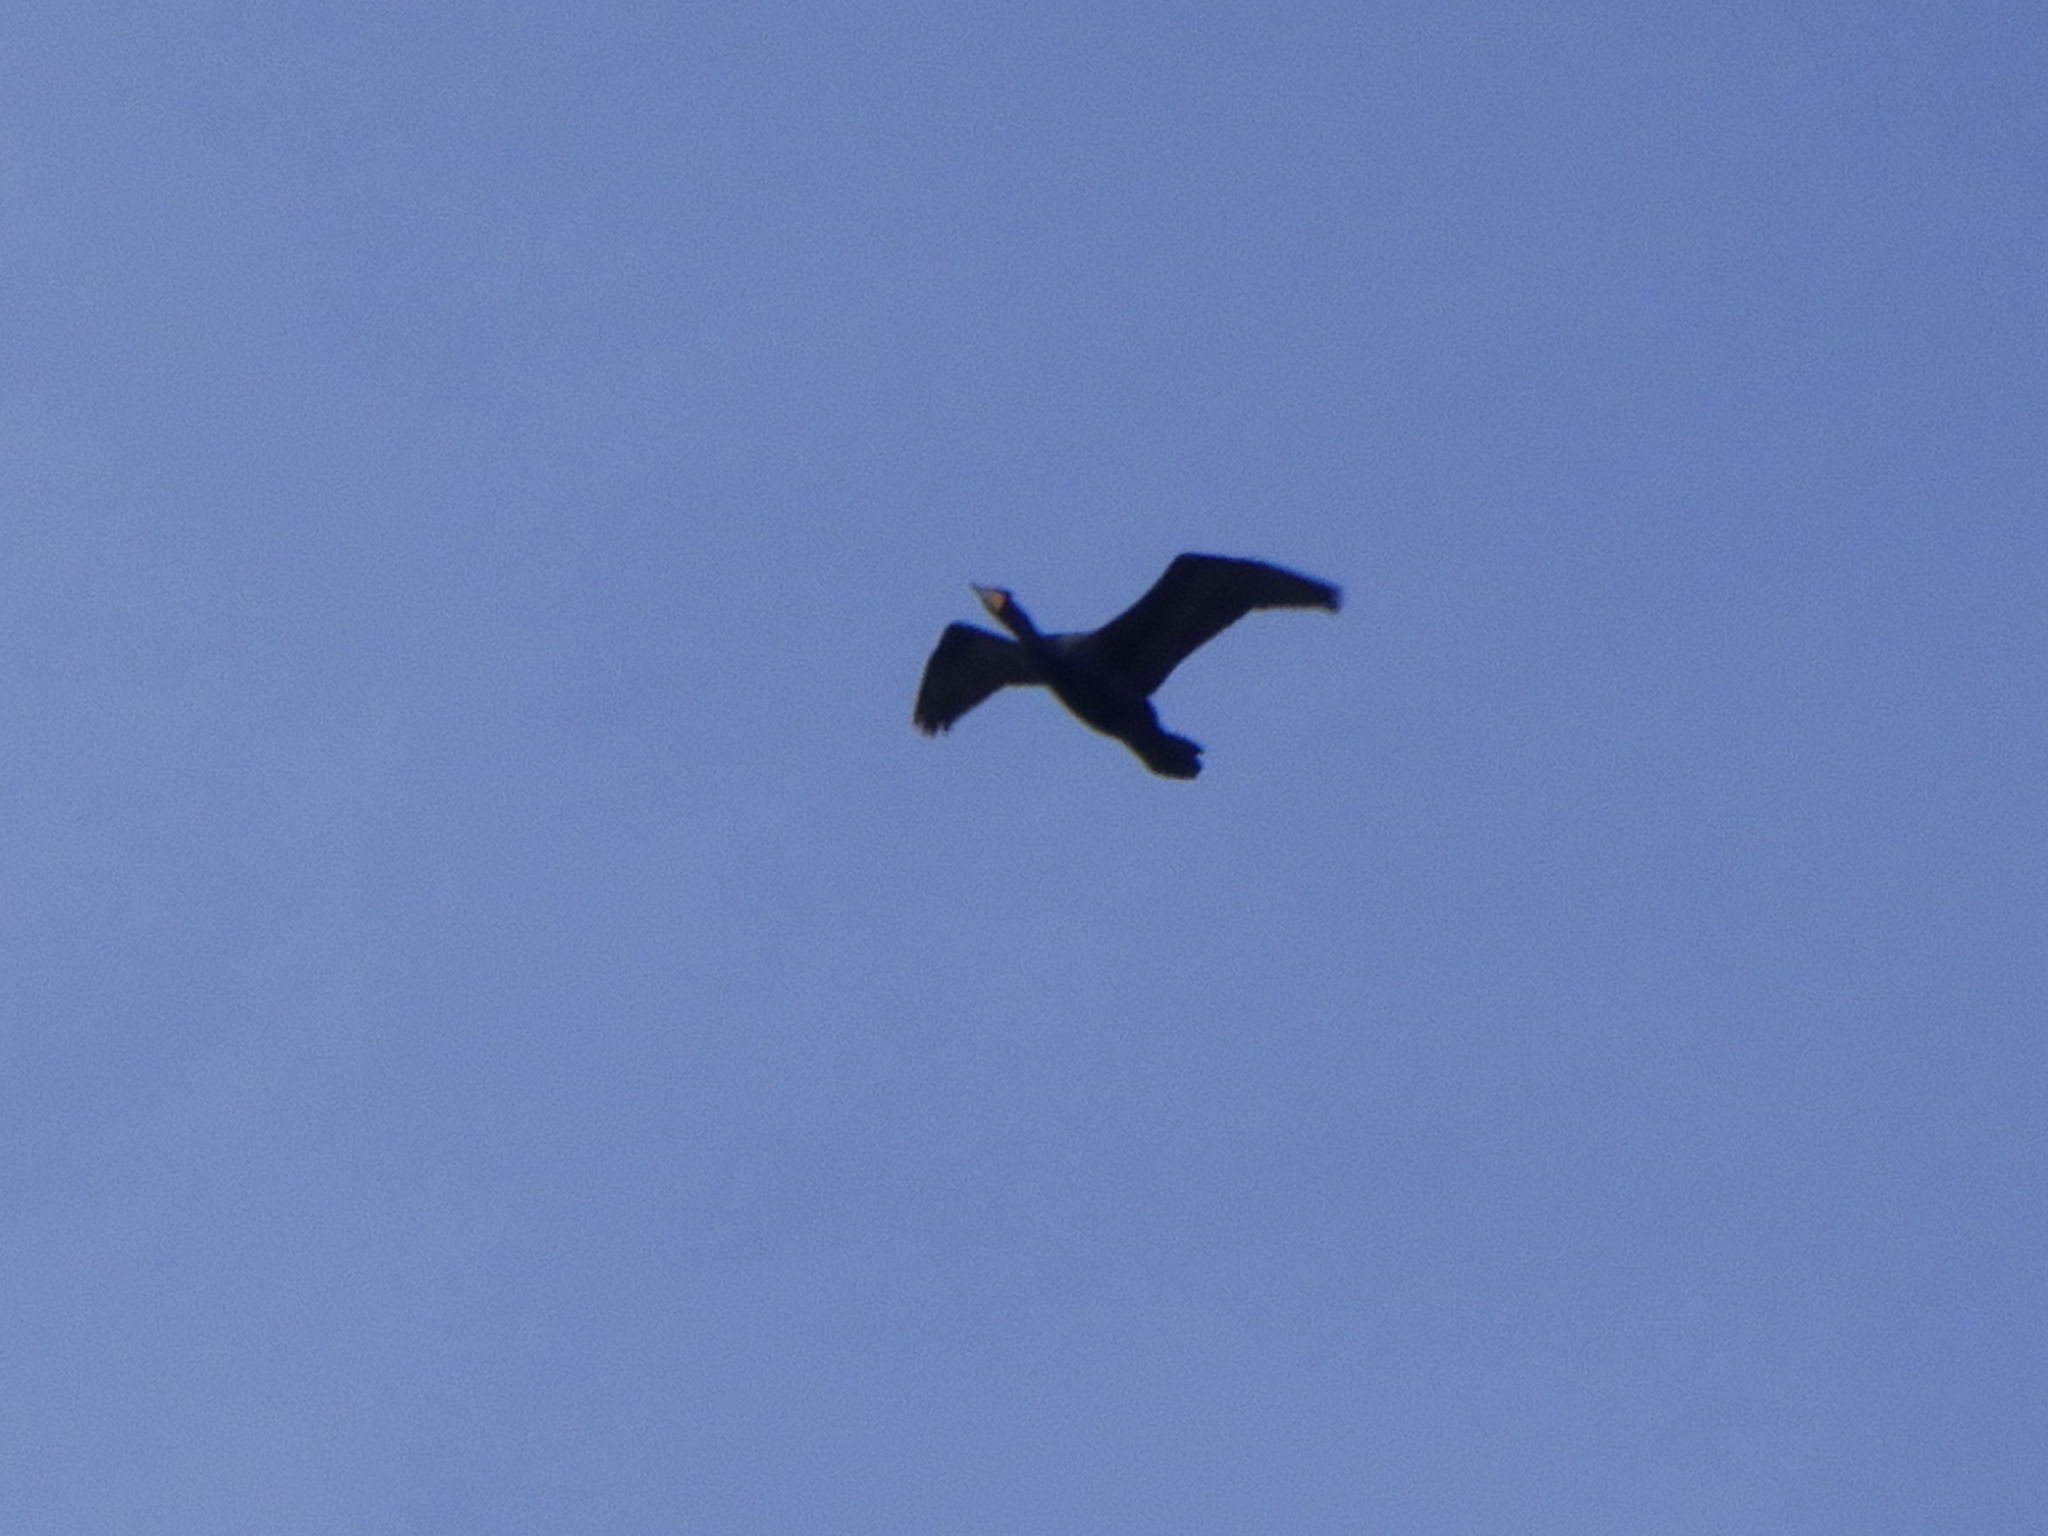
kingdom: Animalia
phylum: Chordata
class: Aves
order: Suliformes
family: Phalacrocoracidae
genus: Phalacrocorax
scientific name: Phalacrocorax auritus
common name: Double-crested cormorant
